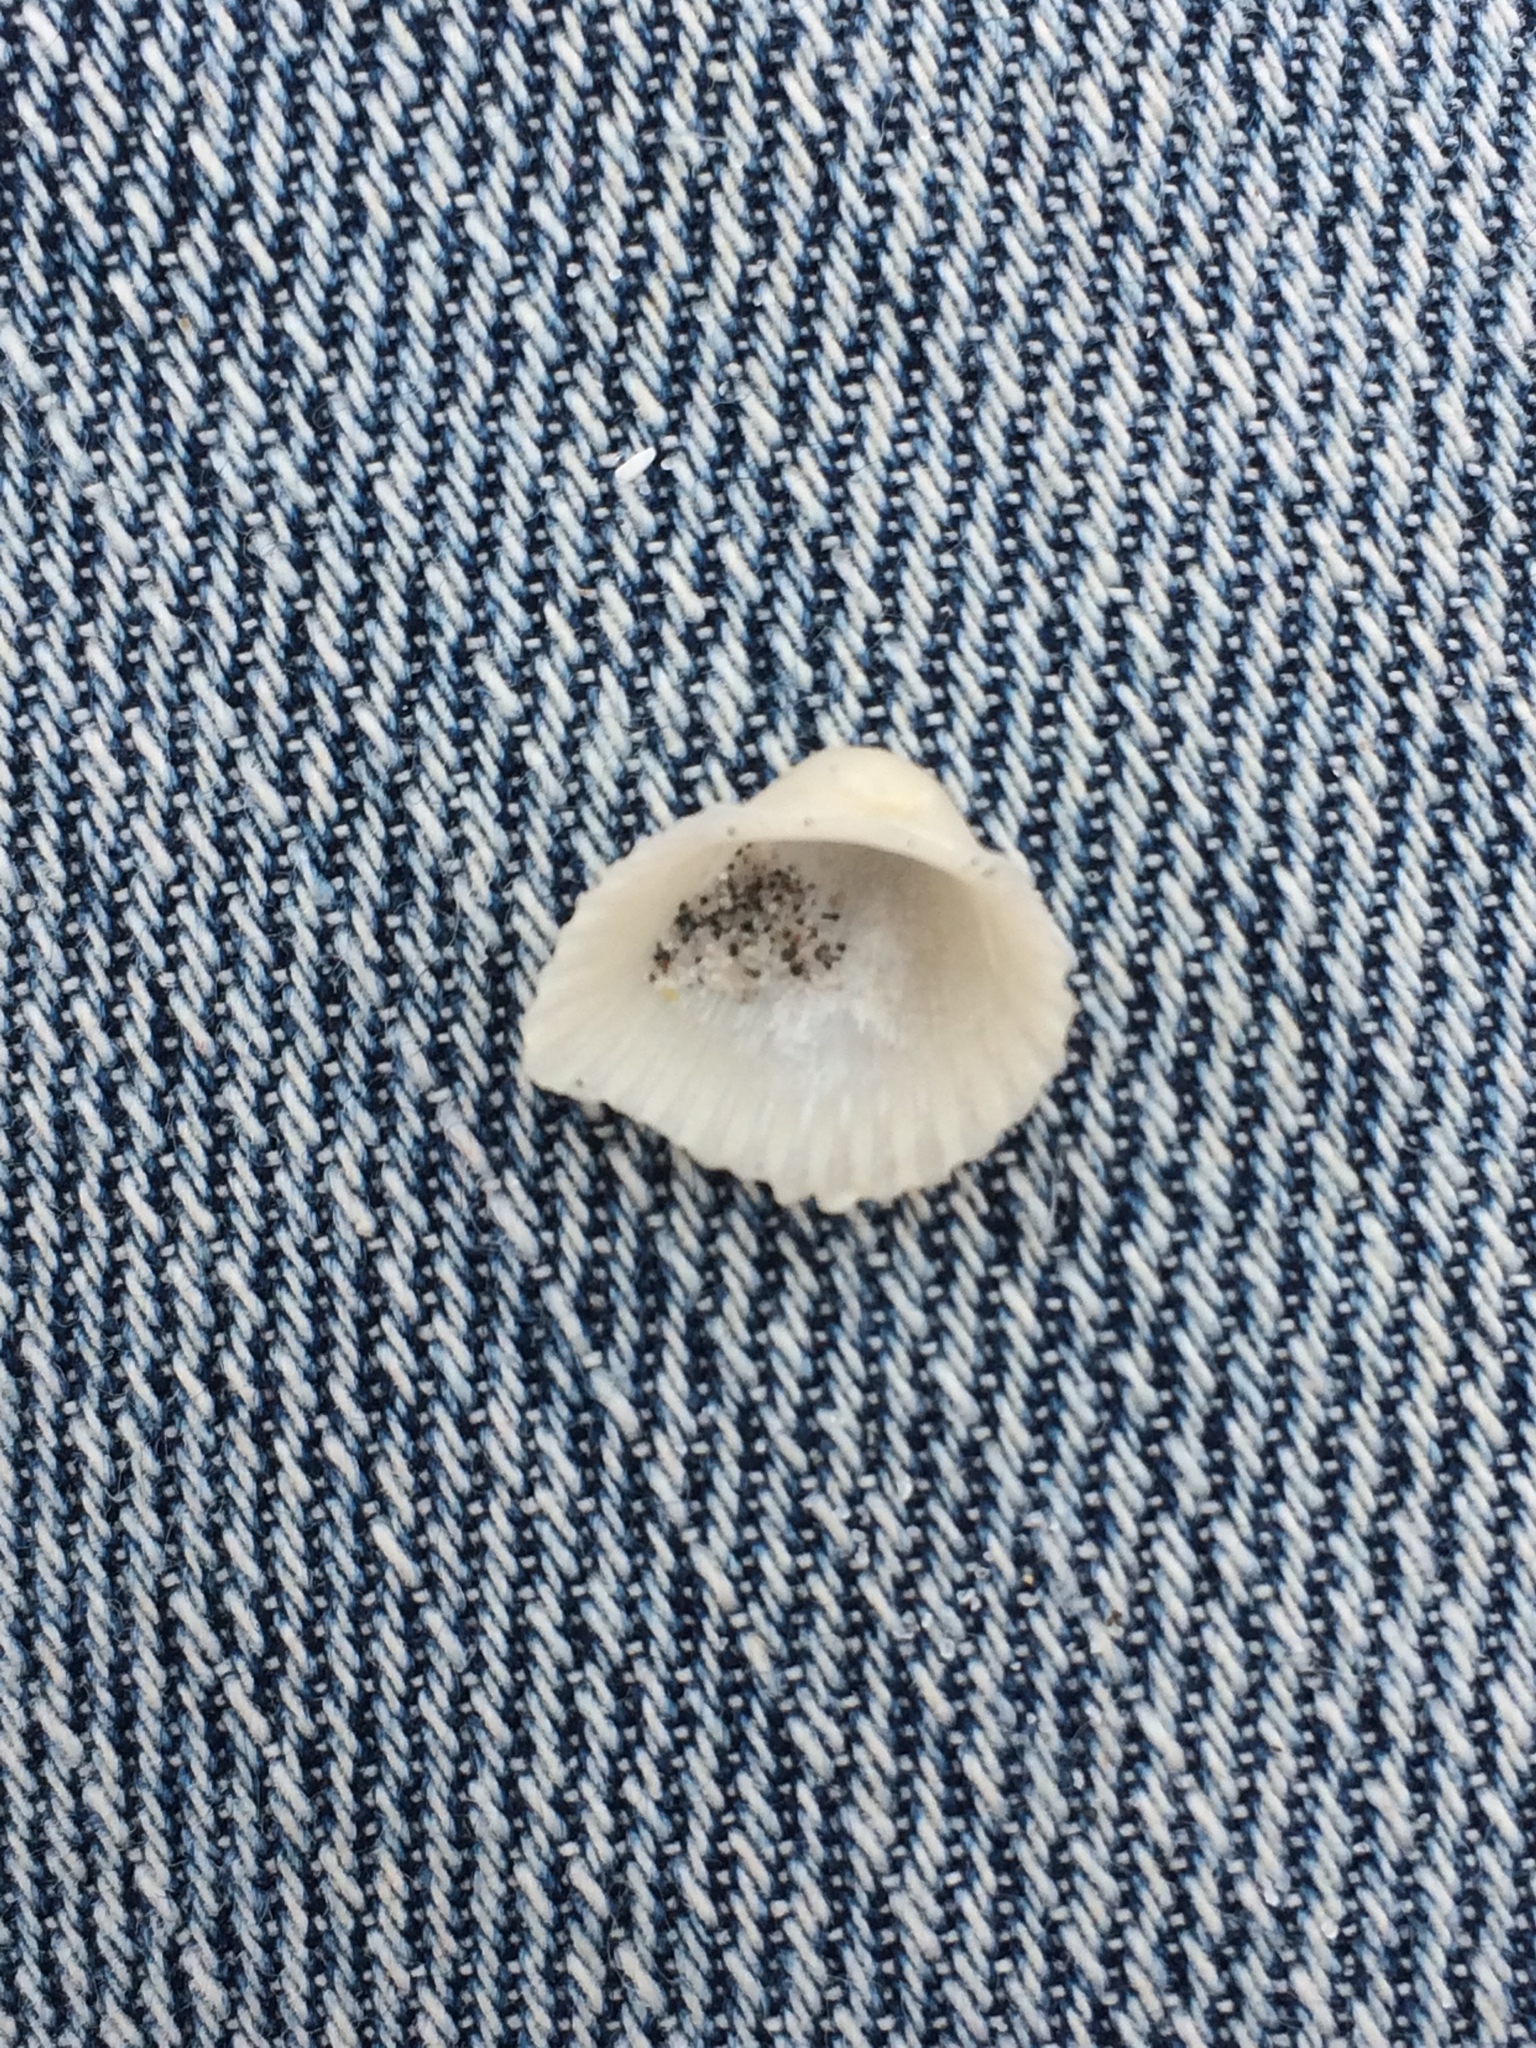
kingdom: Animalia
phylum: Mollusca
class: Bivalvia
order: Arcida
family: Arcidae
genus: Anadara
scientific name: Anadara brasiliana
